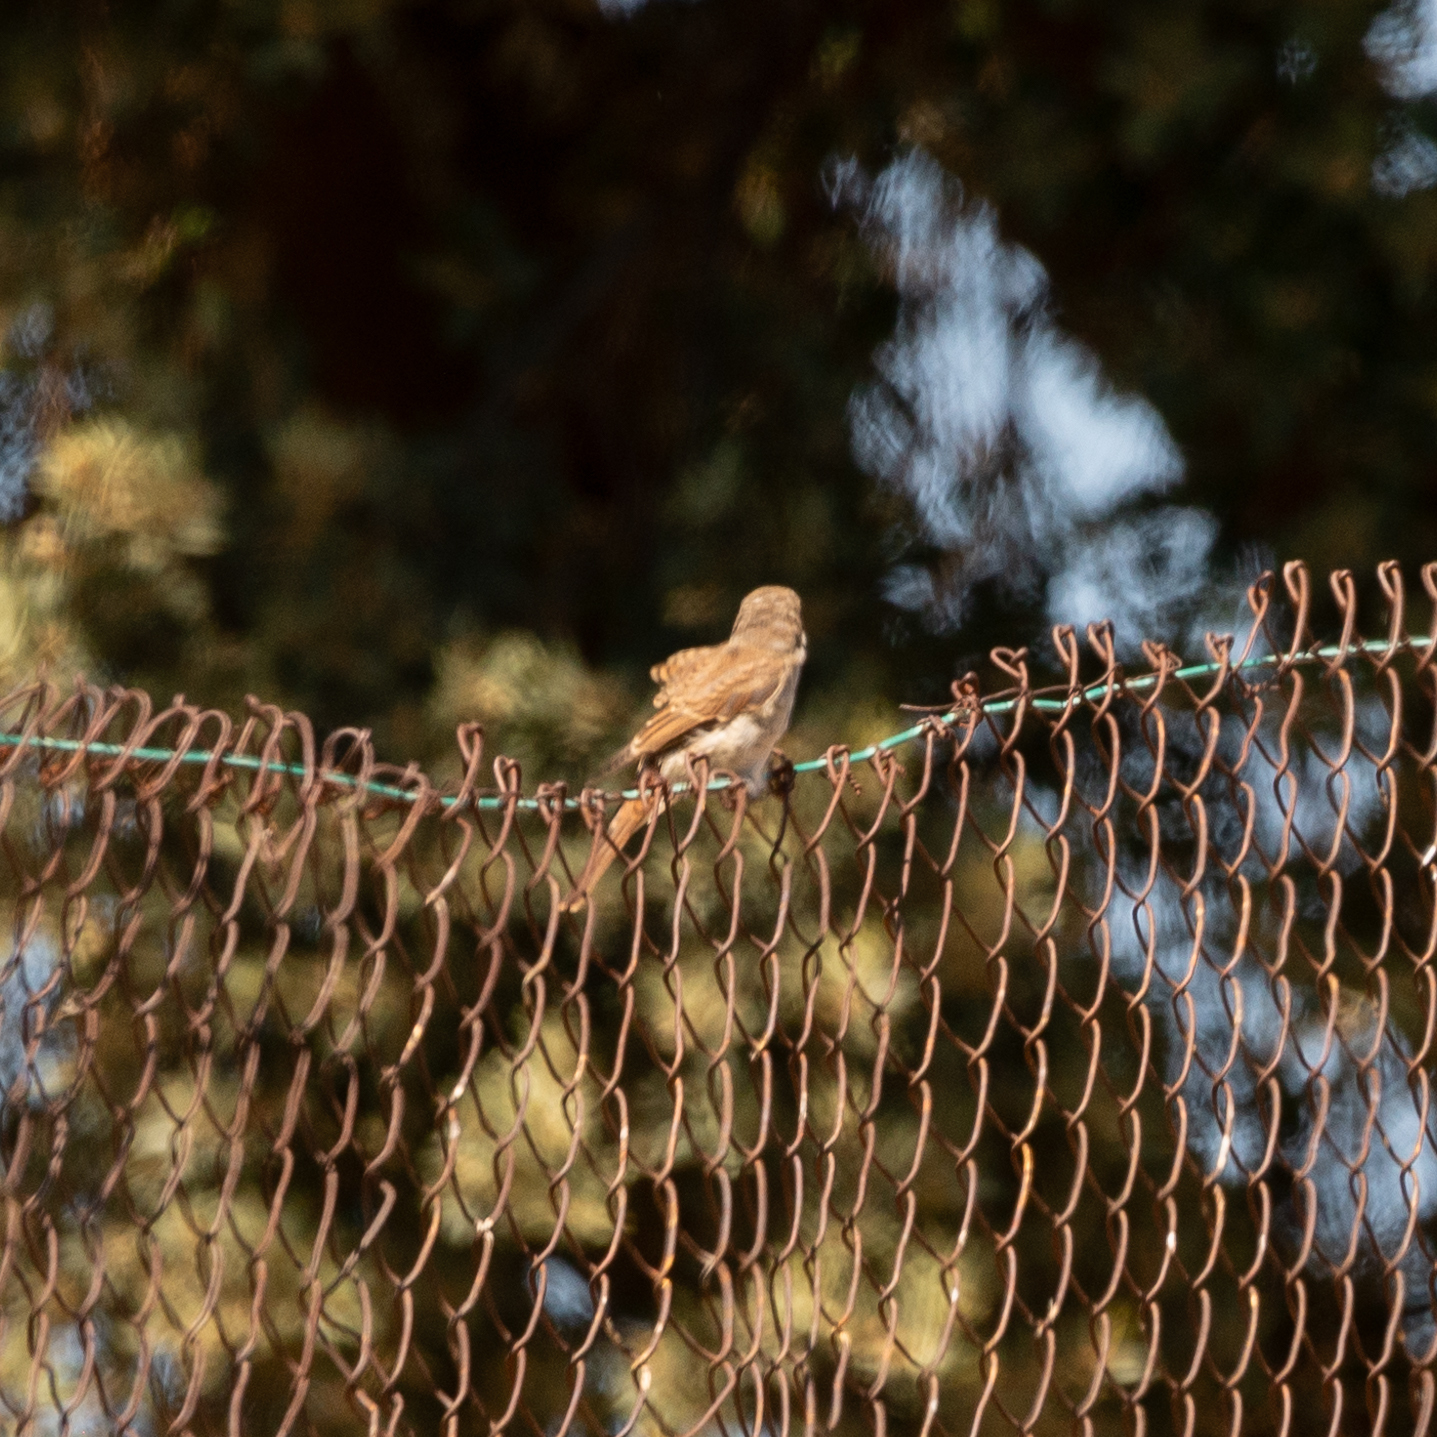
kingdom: Animalia
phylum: Chordata
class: Aves
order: Passeriformes
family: Laniidae
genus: Lanius
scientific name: Lanius collurio
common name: Red-backed shrike
